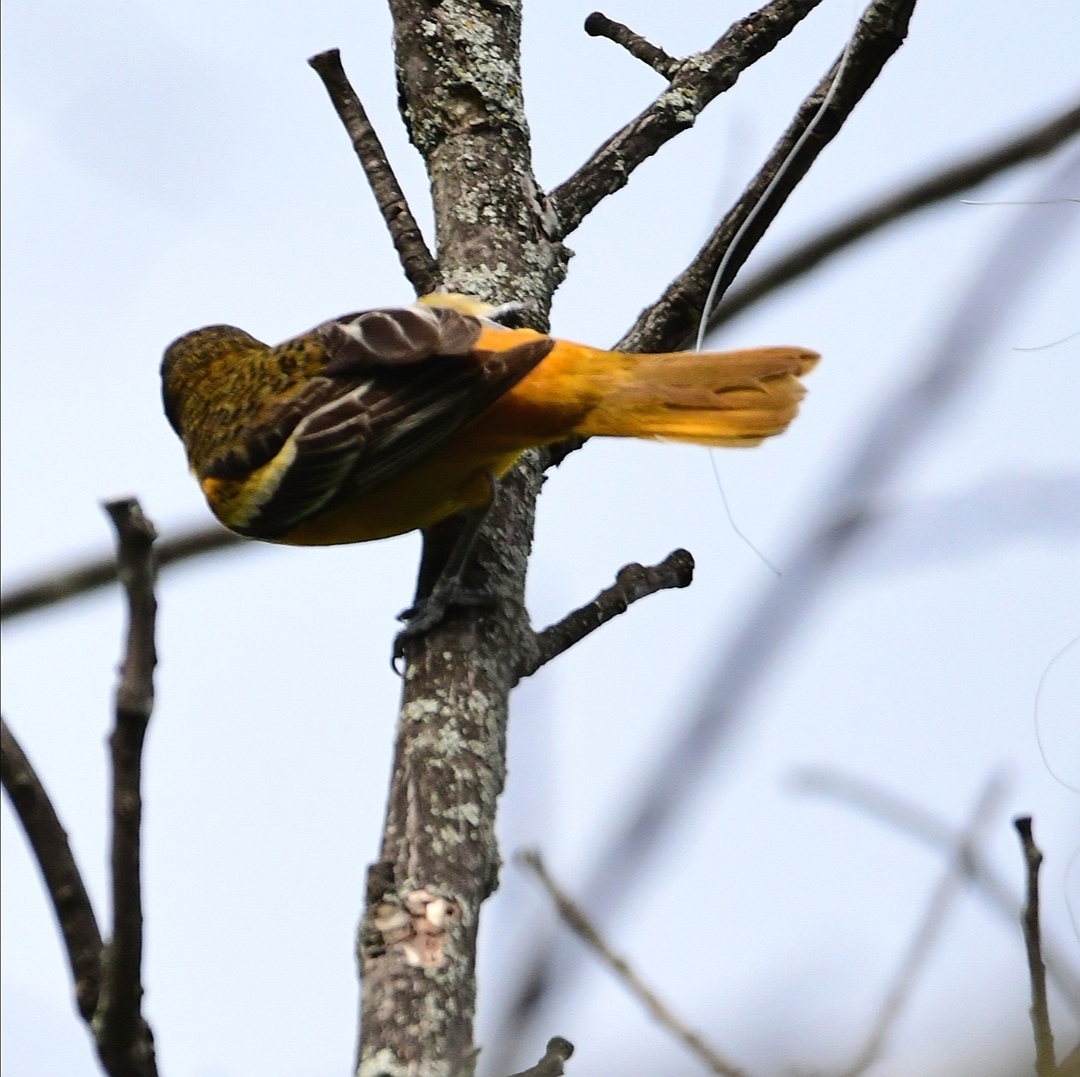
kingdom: Animalia
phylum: Chordata
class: Aves
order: Passeriformes
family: Icteridae
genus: Icterus
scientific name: Icterus galbula
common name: Baltimore oriole
